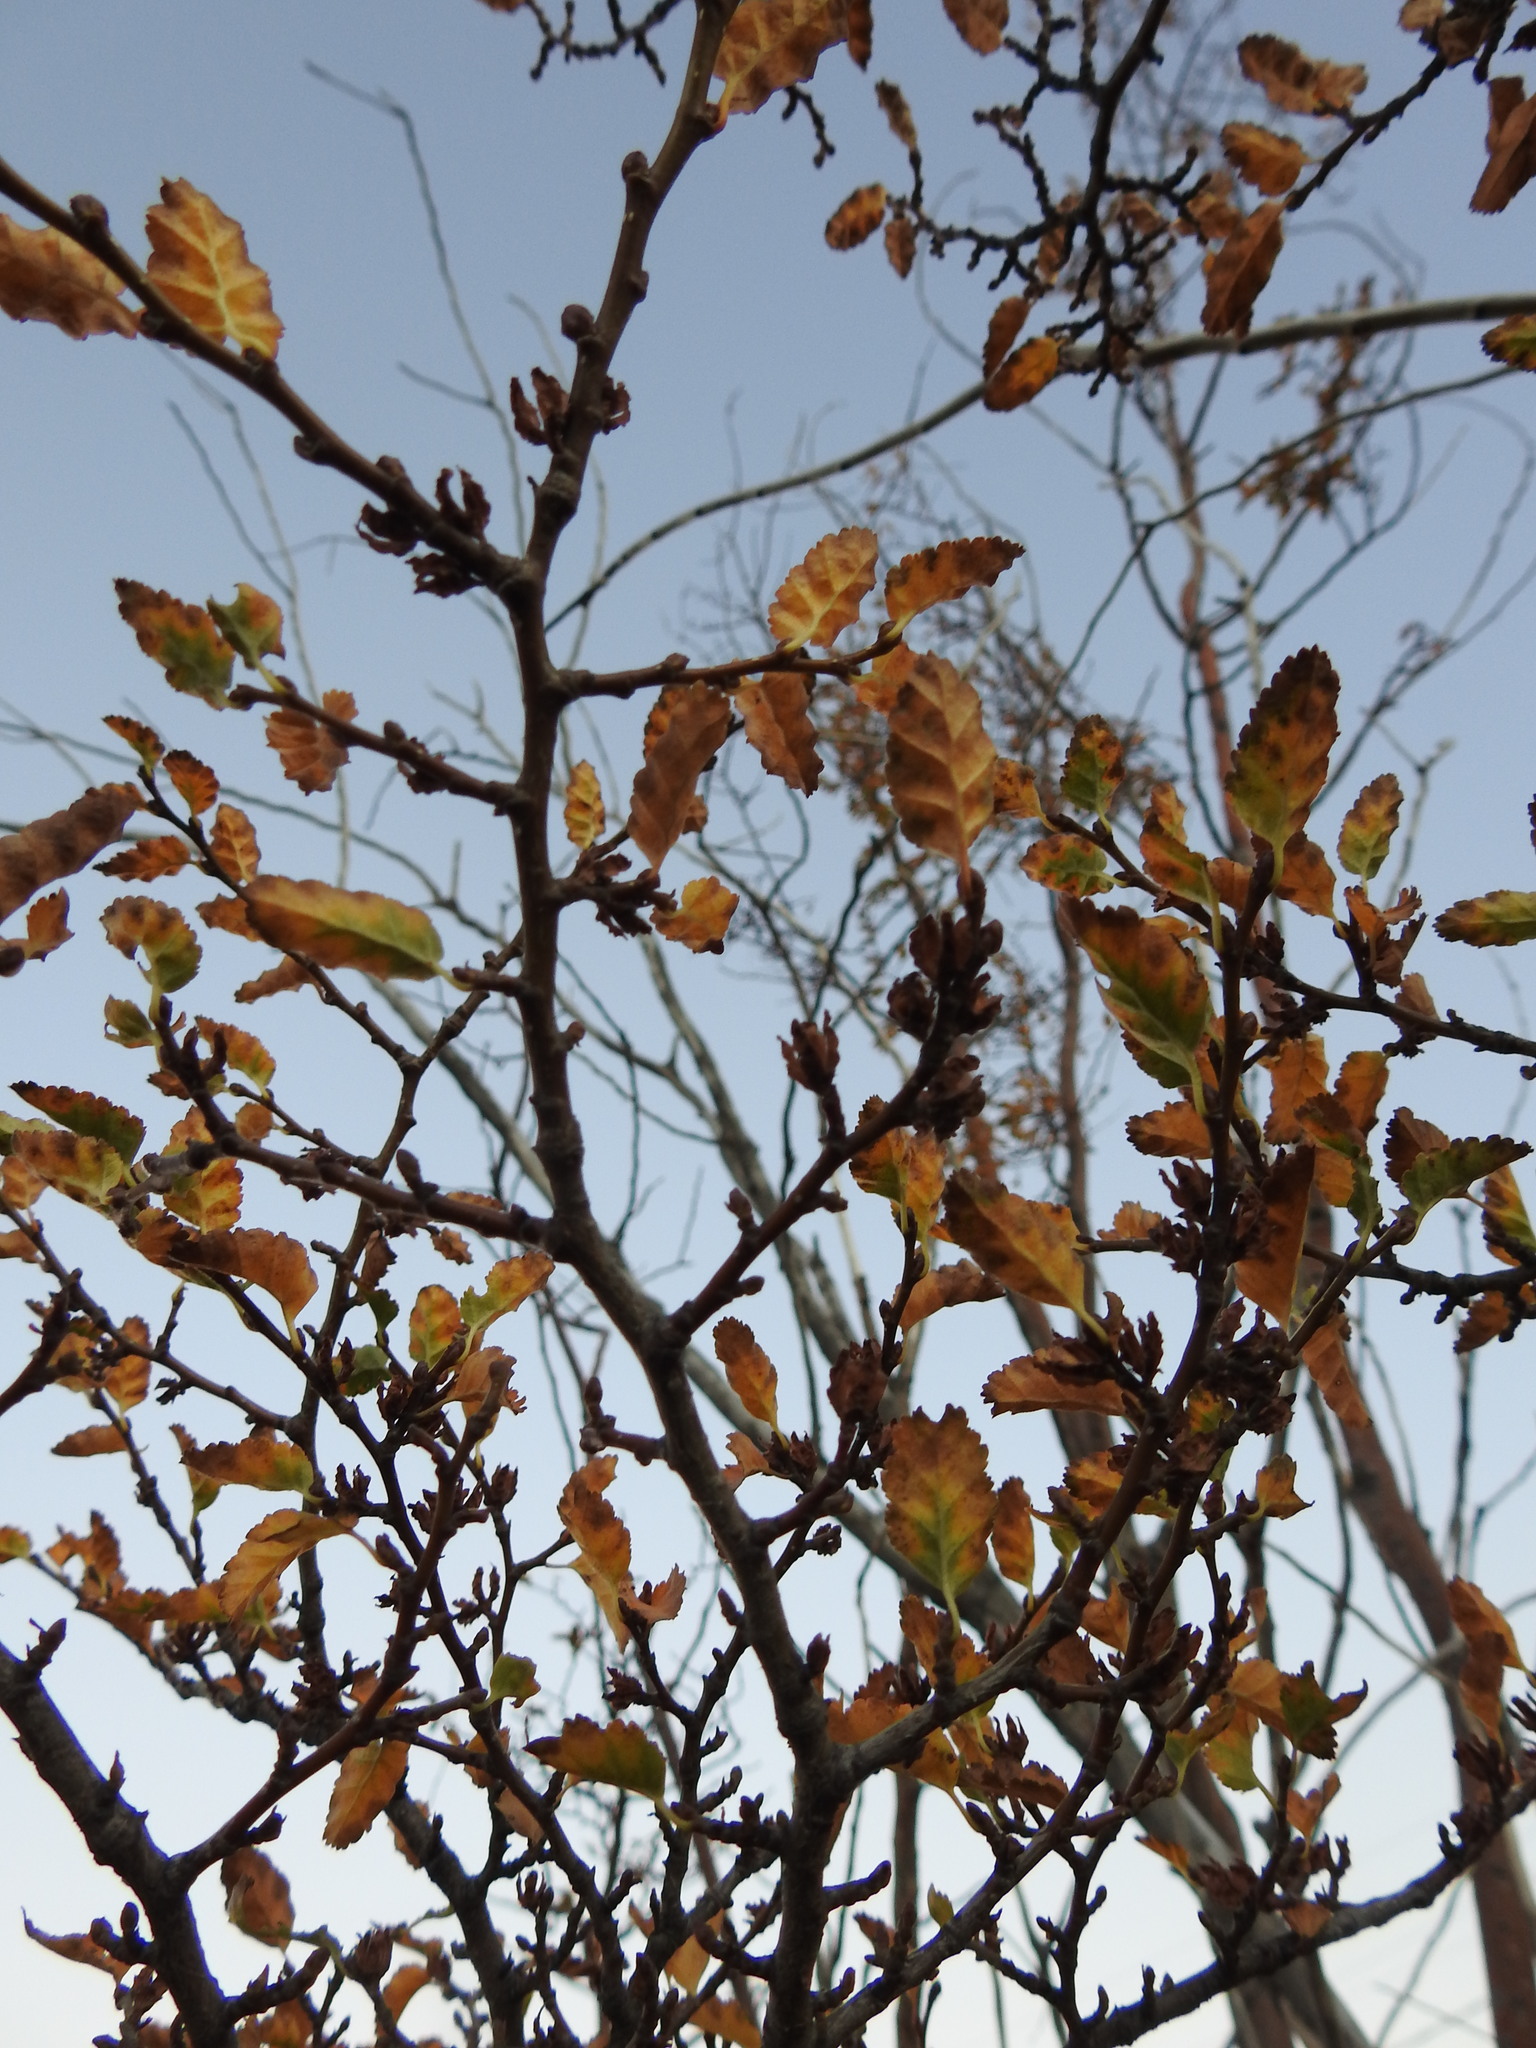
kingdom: Plantae
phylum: Tracheophyta
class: Magnoliopsida
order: Fagales
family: Nothofagaceae
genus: Nothofagus
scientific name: Nothofagus antarctica
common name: Antarctic beech
